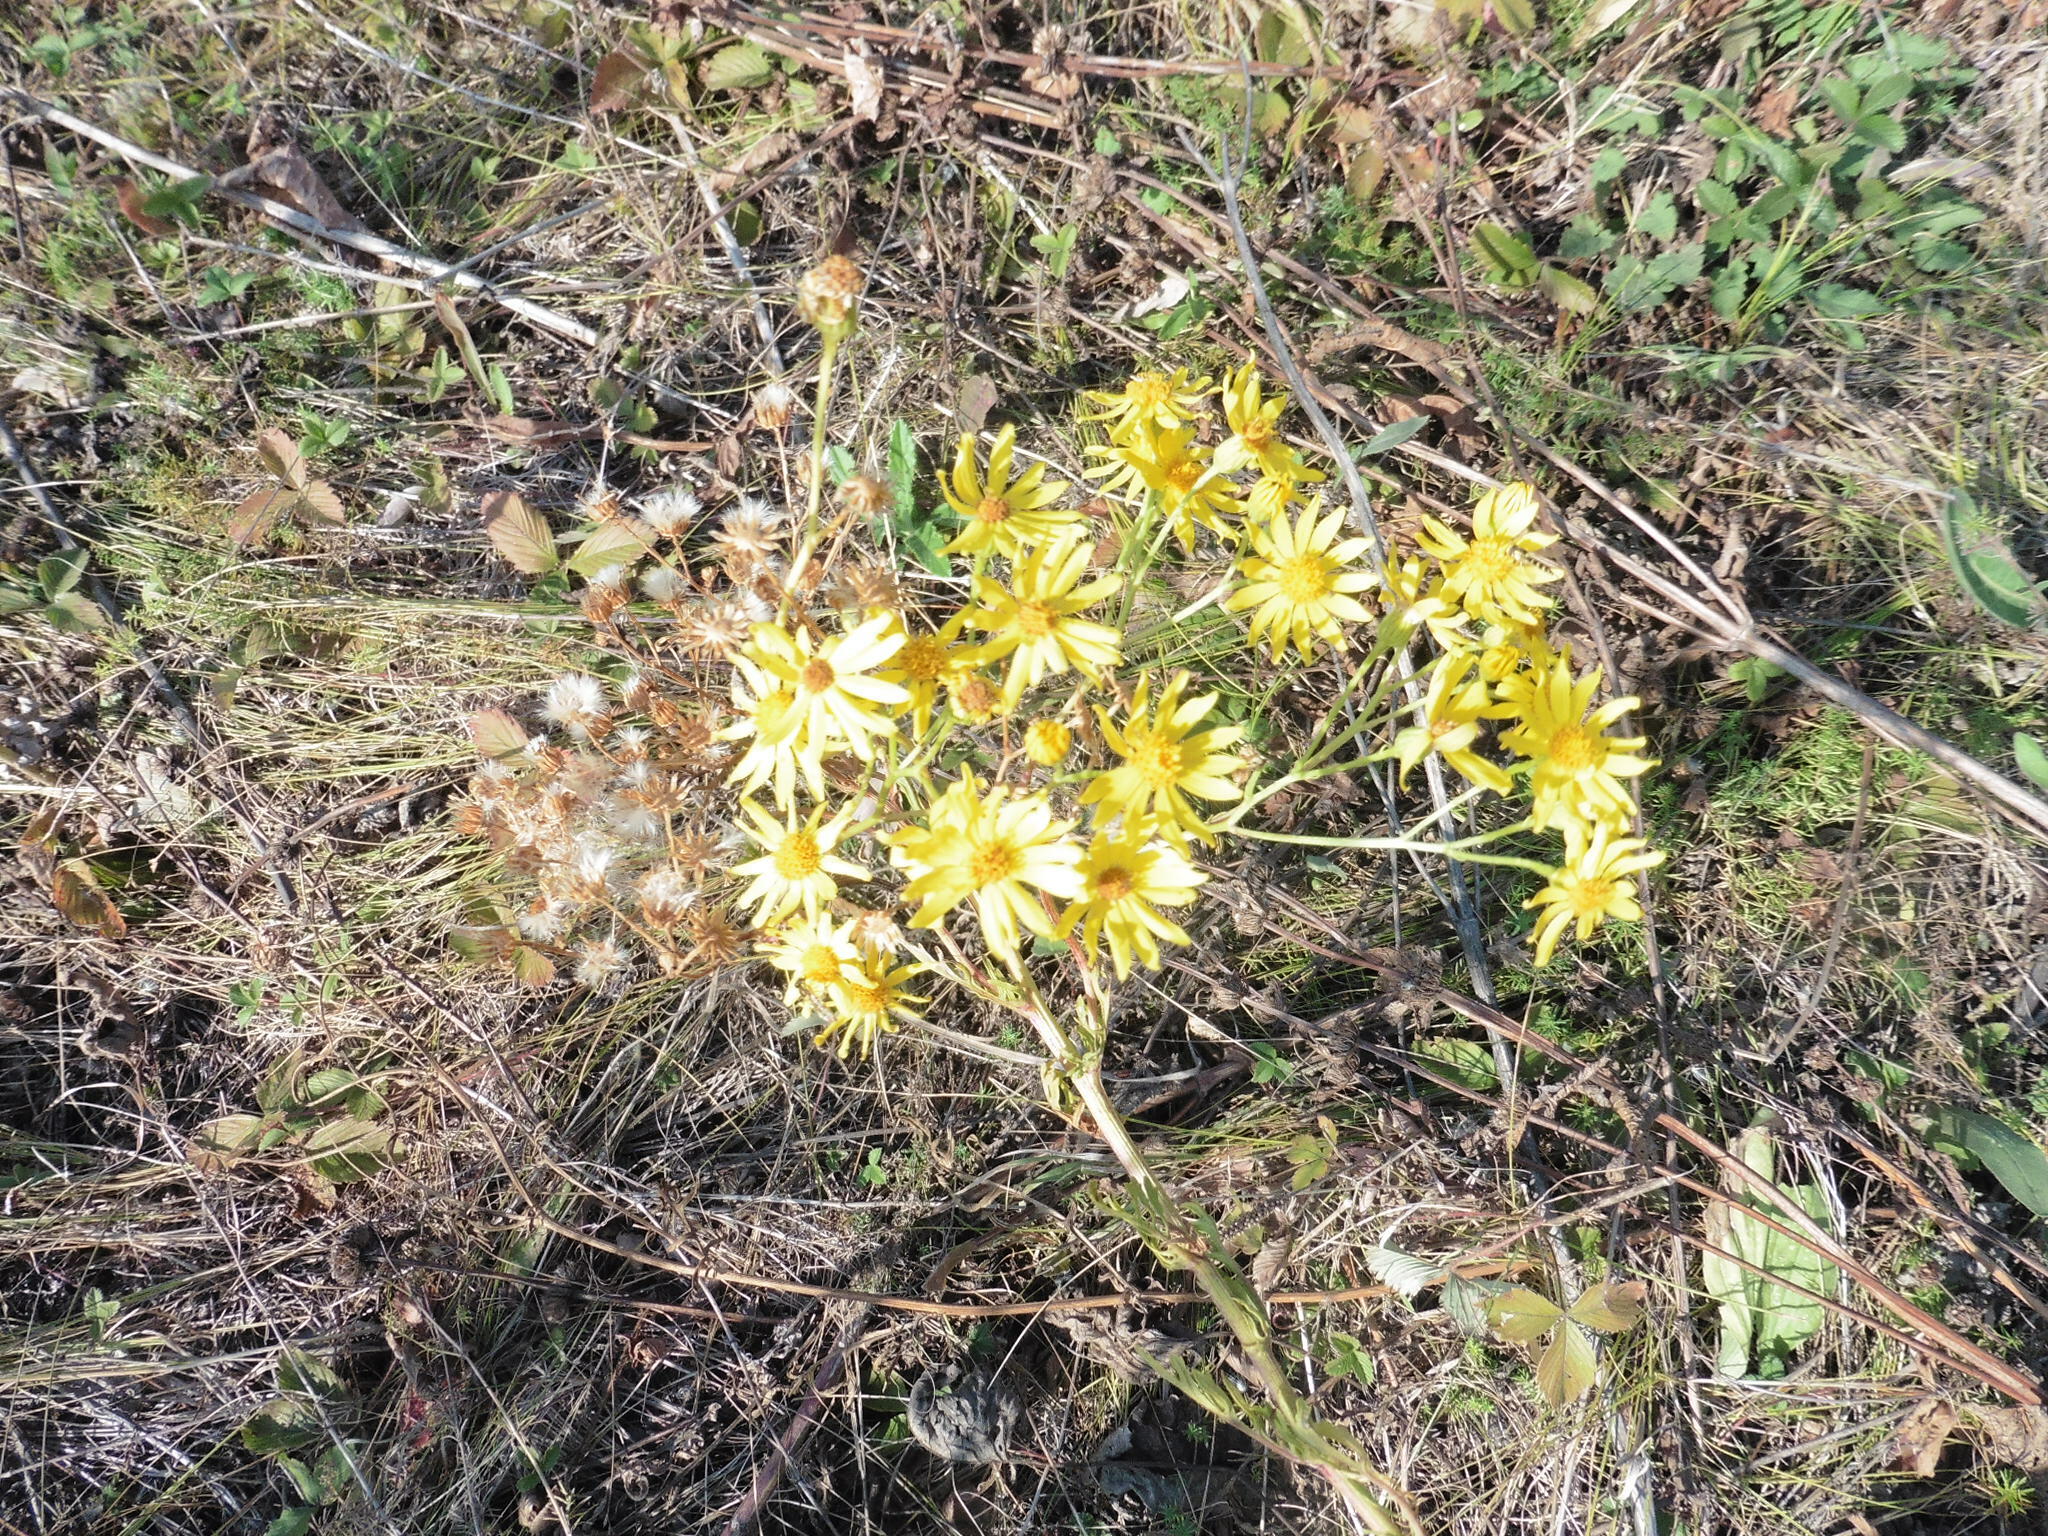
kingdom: Plantae
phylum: Tracheophyta
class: Magnoliopsida
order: Asterales
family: Asteraceae
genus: Jacobaea
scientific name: Jacobaea vulgaris
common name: Stinking willie
